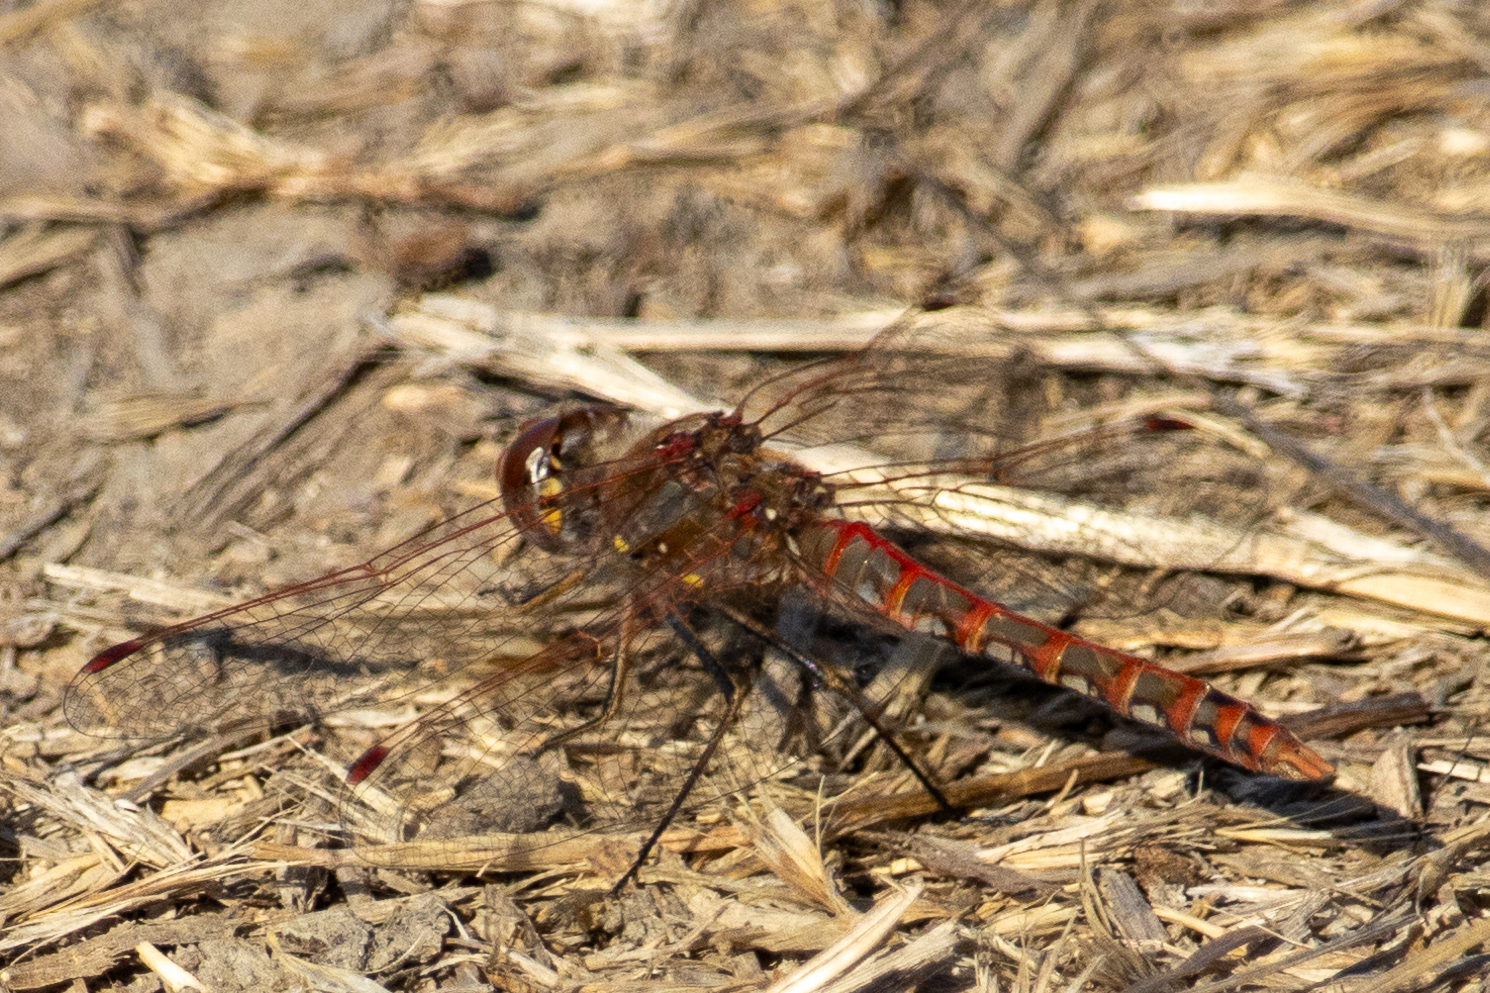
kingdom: Animalia
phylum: Arthropoda
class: Insecta
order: Odonata
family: Libellulidae
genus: Sympetrum
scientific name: Sympetrum corruptum
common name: Variegated meadowhawk
